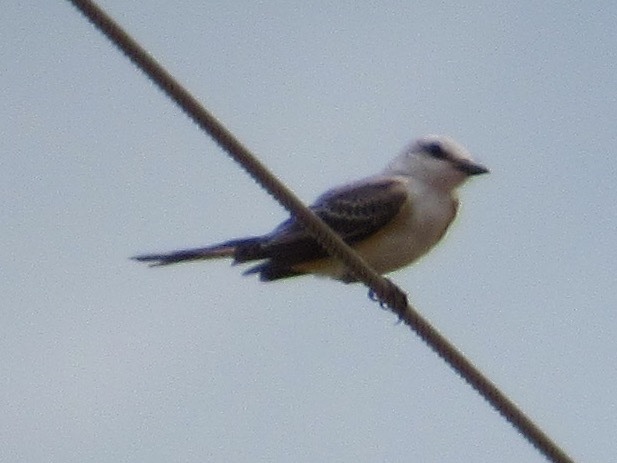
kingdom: Animalia
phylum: Chordata
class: Aves
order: Passeriformes
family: Tyrannidae
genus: Tyrannus
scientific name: Tyrannus forficatus
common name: Scissor-tailed flycatcher
